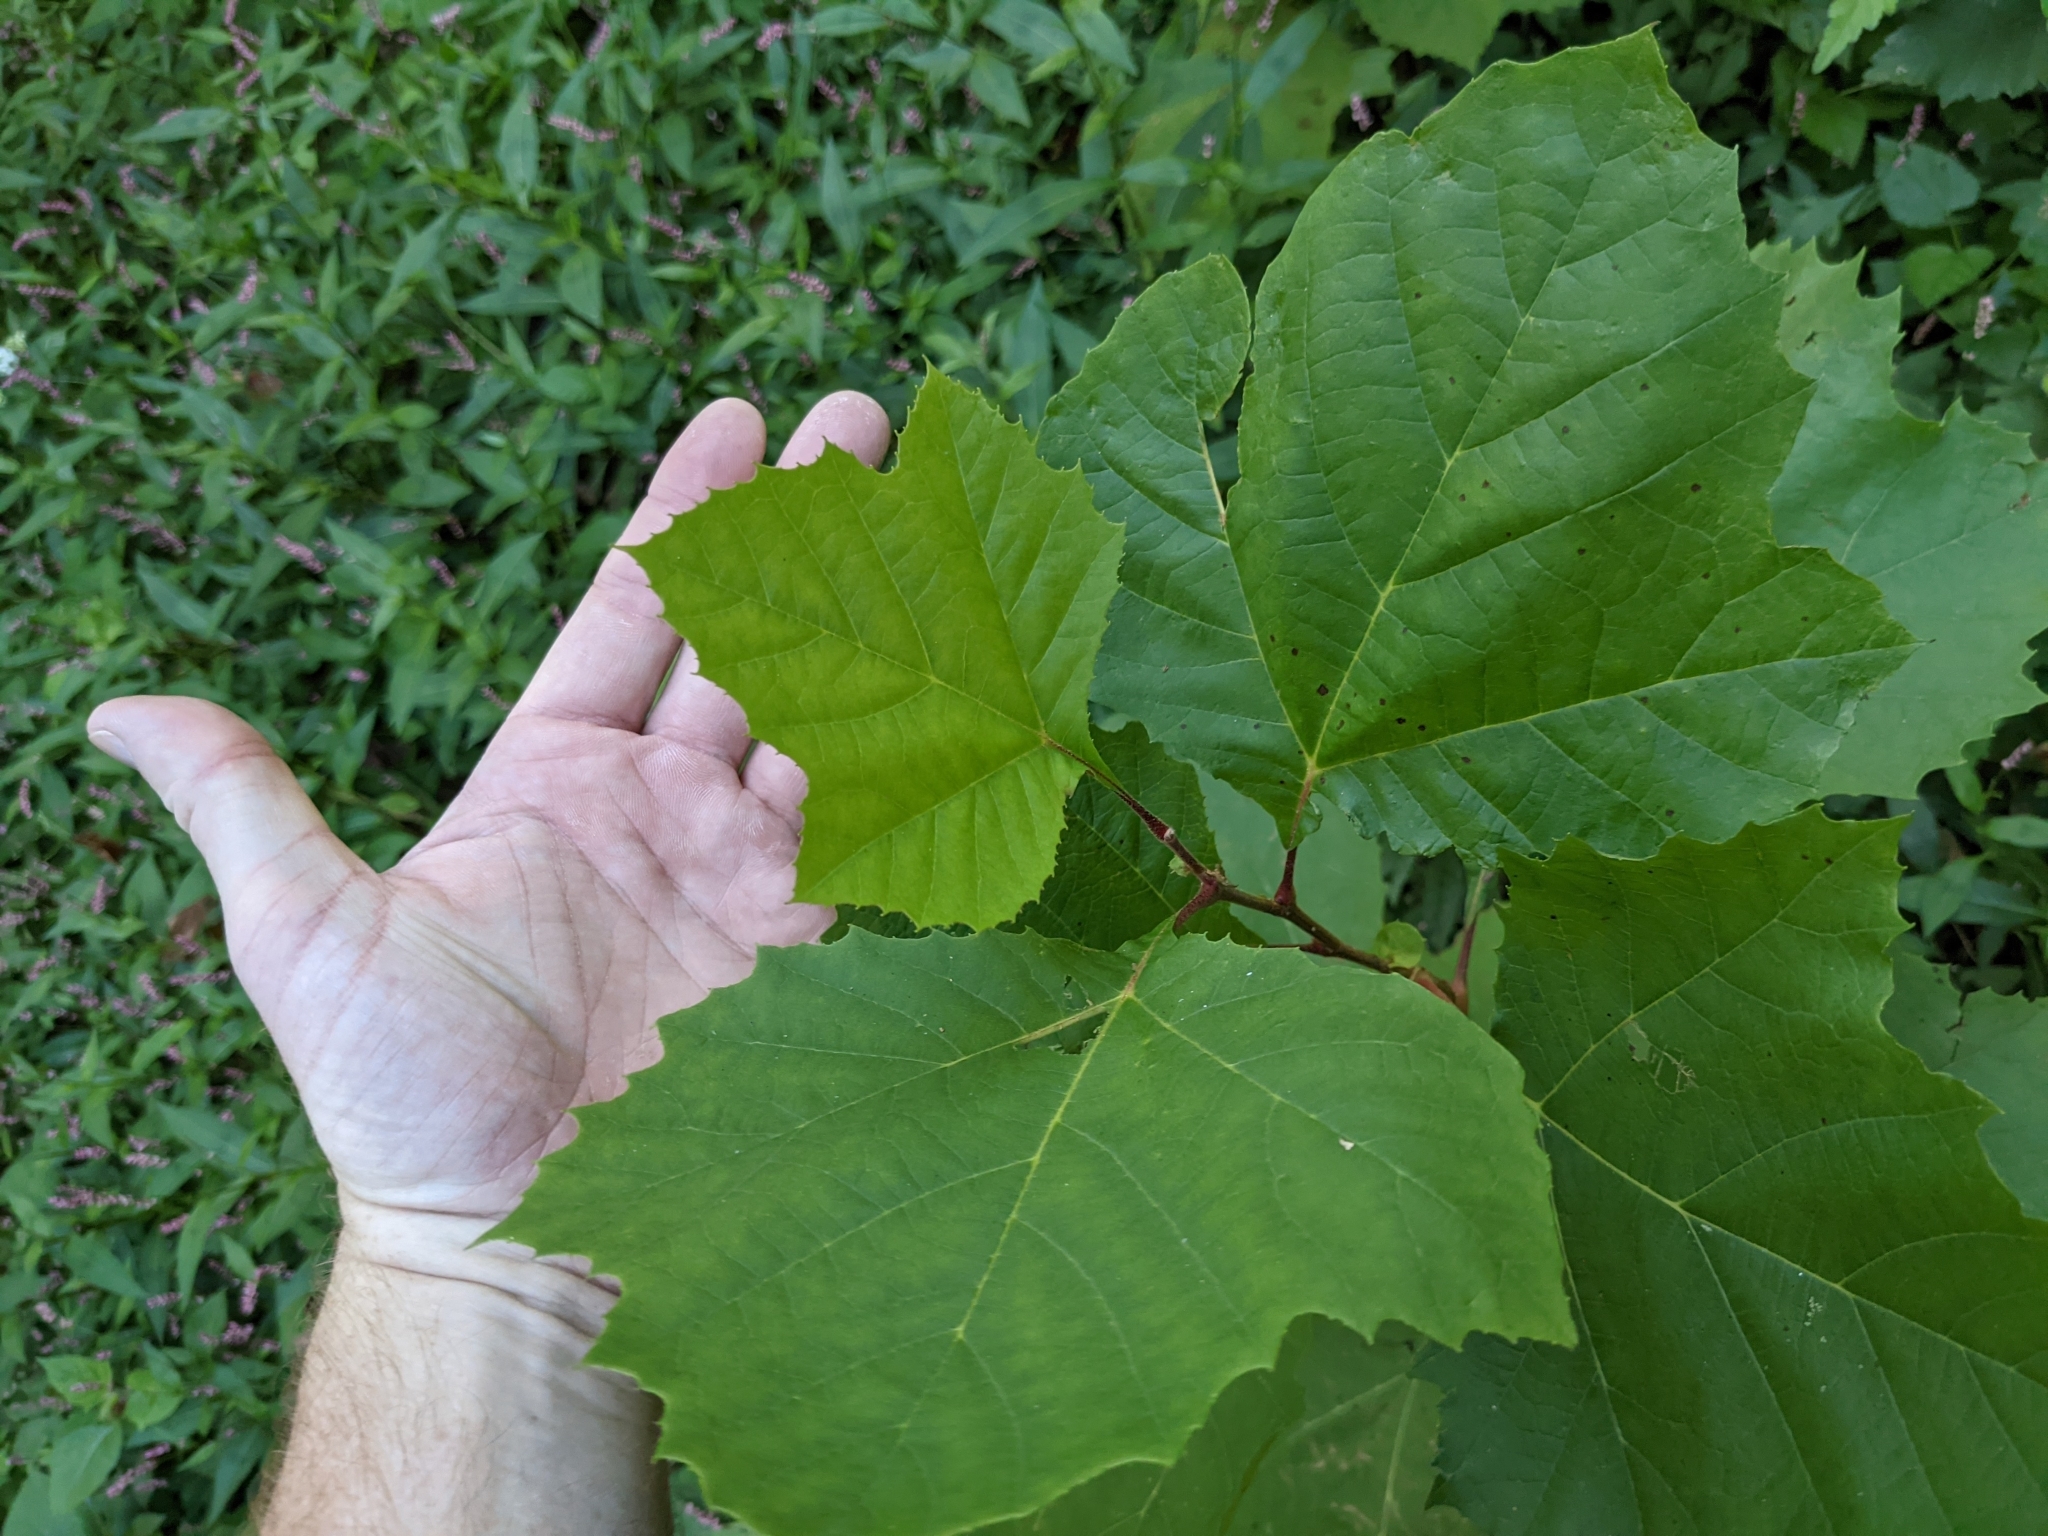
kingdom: Plantae
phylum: Tracheophyta
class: Magnoliopsida
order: Proteales
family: Platanaceae
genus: Platanus
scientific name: Platanus occidentalis
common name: American sycamore
